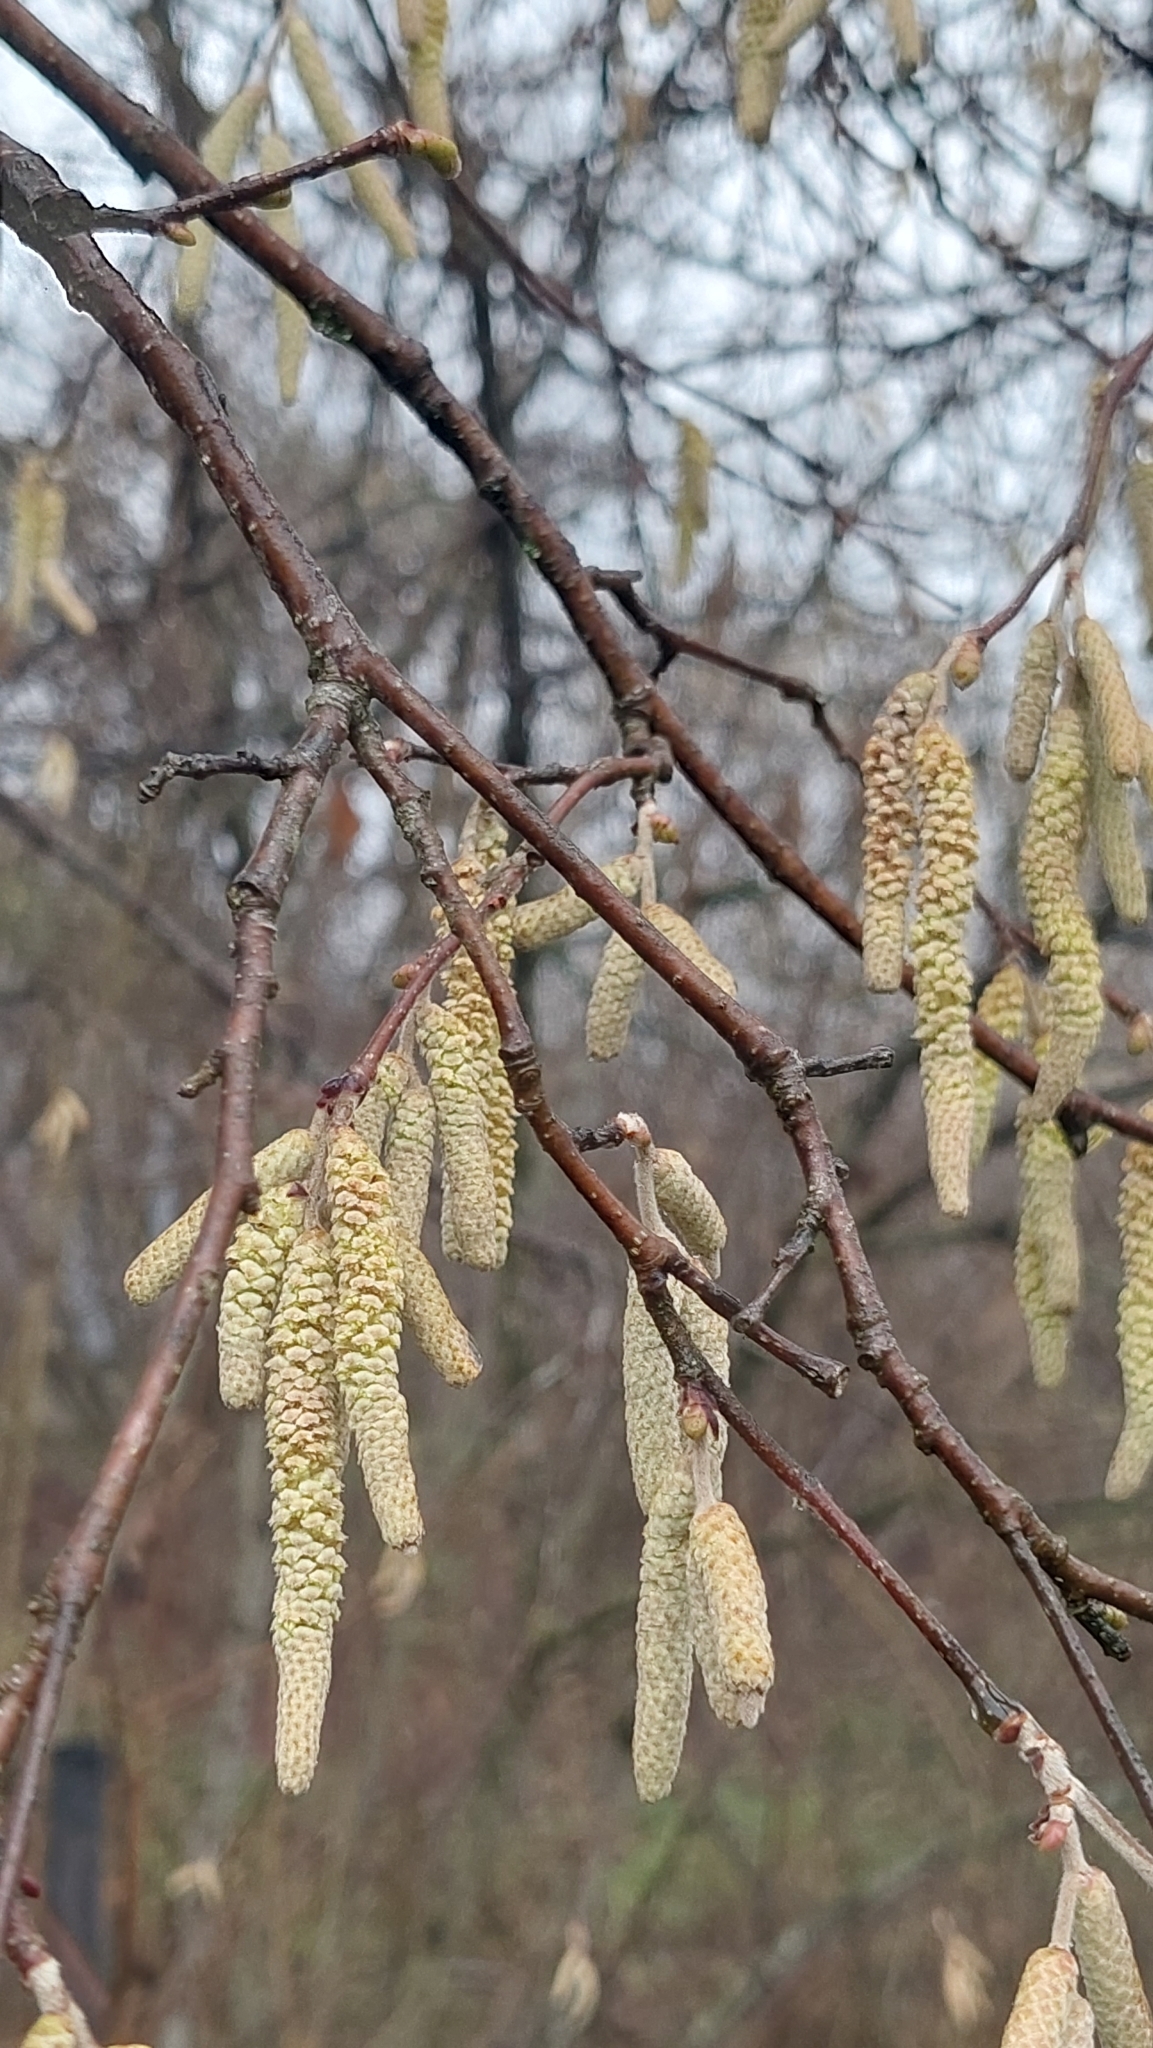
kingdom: Plantae
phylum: Tracheophyta
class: Magnoliopsida
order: Fagales
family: Betulaceae
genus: Corylus
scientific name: Corylus avellana
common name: European hazel
